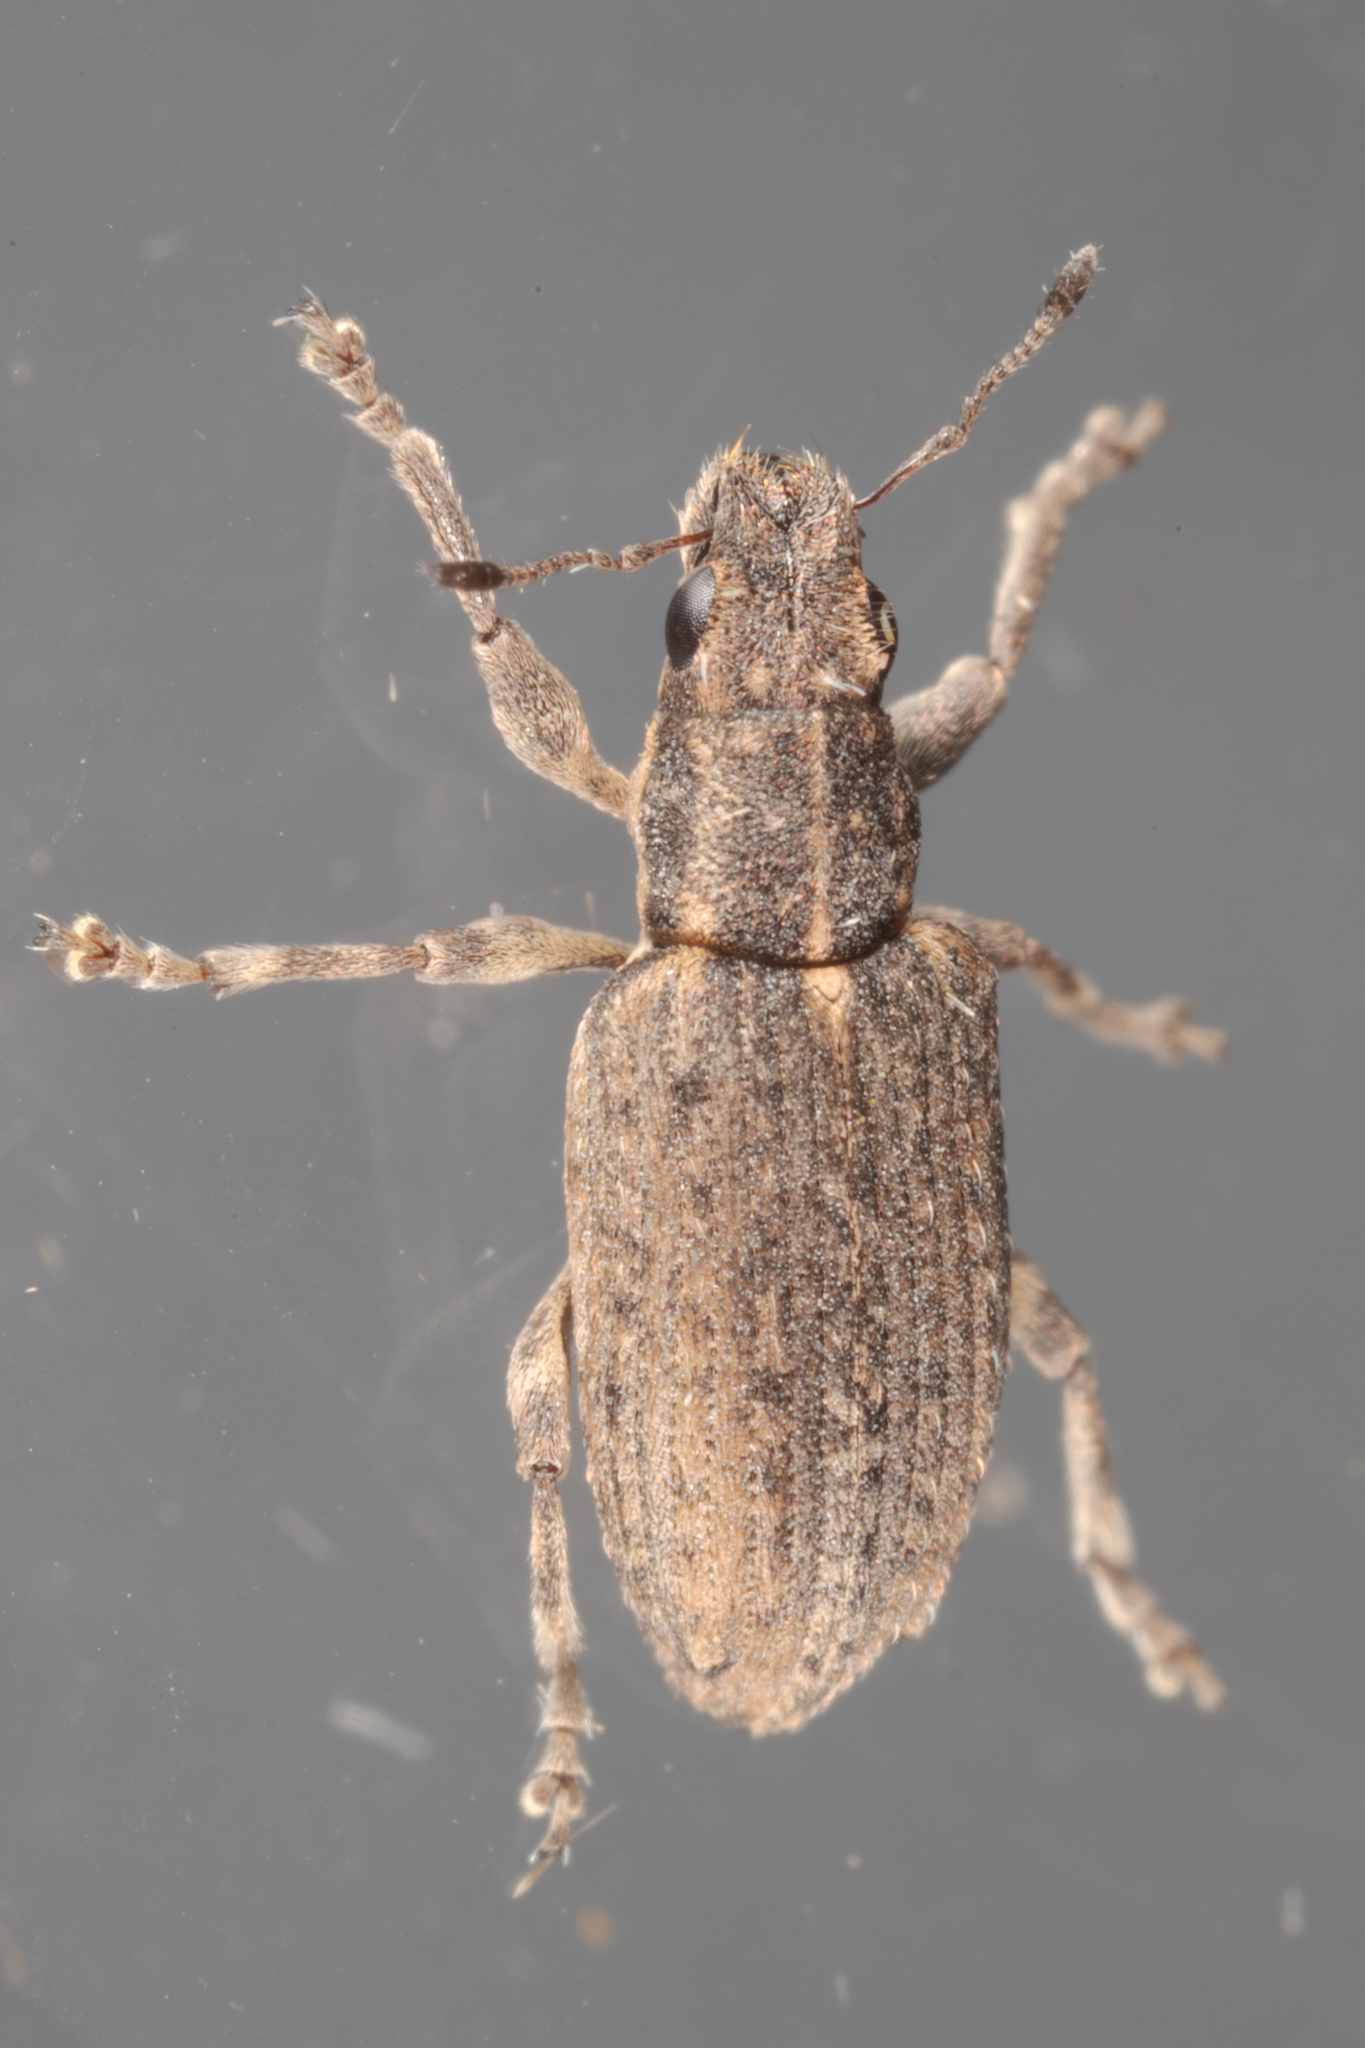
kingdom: Animalia
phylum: Arthropoda
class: Insecta
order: Coleoptera
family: Curculionidae
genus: Sitones
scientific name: Sitones californius
